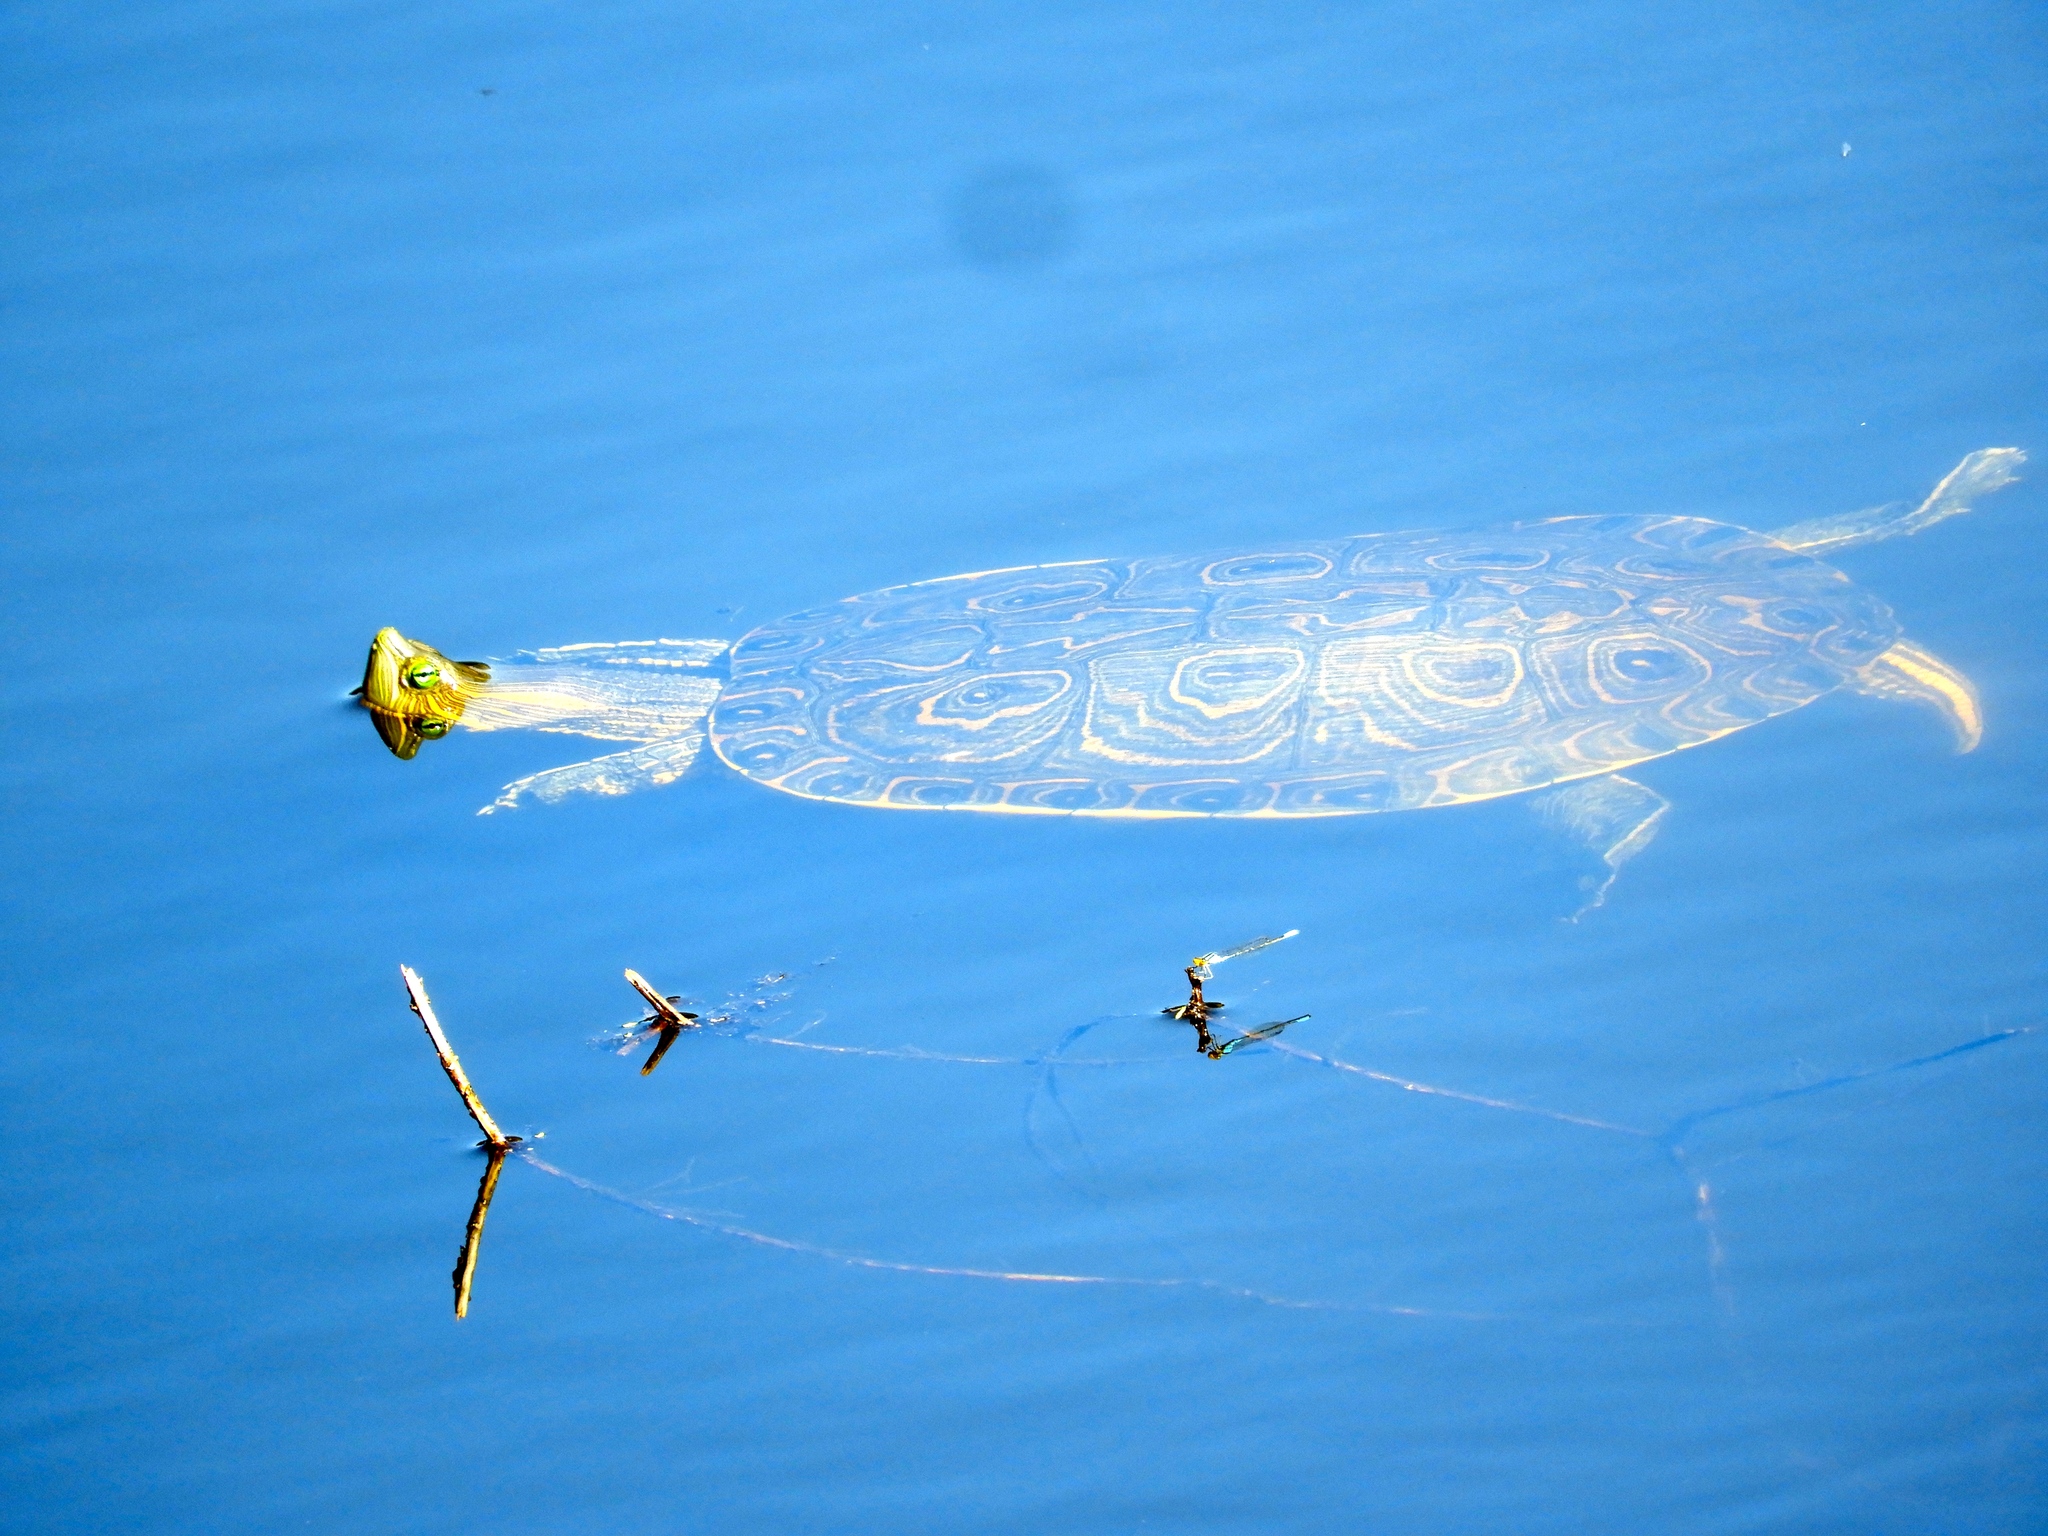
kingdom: Animalia
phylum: Chordata
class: Testudines
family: Emydidae
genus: Trachemys
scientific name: Trachemys ornata
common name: Ornate slider
